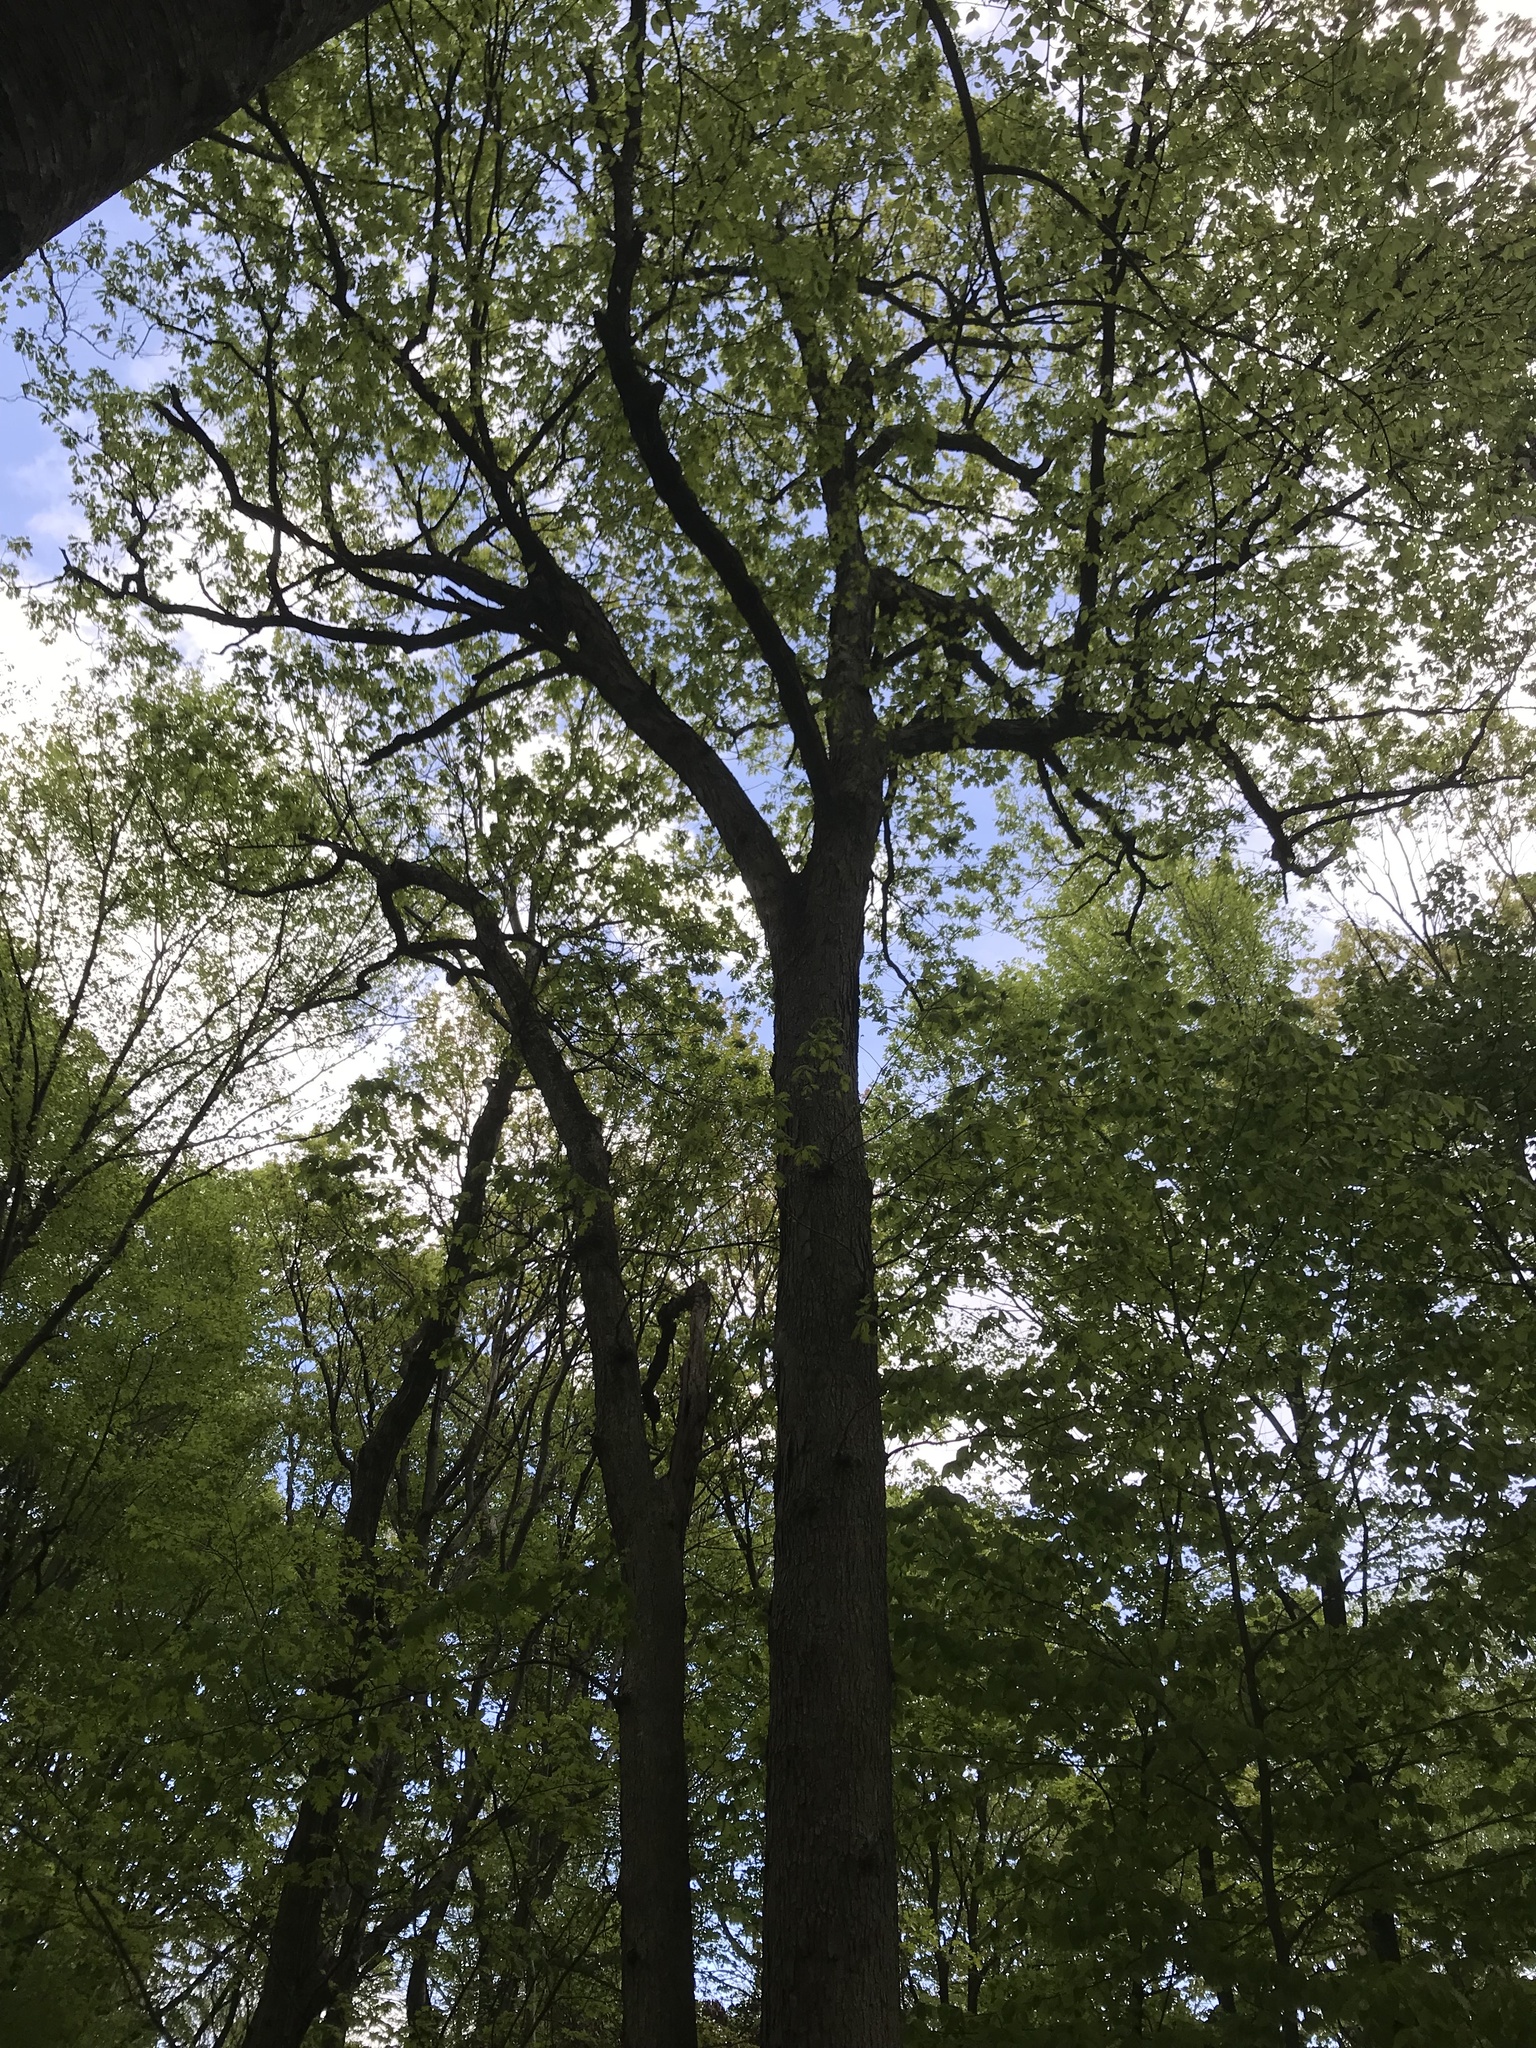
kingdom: Plantae
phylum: Tracheophyta
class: Magnoliopsida
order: Fagales
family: Fagaceae
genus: Quercus
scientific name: Quercus alba
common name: White oak
